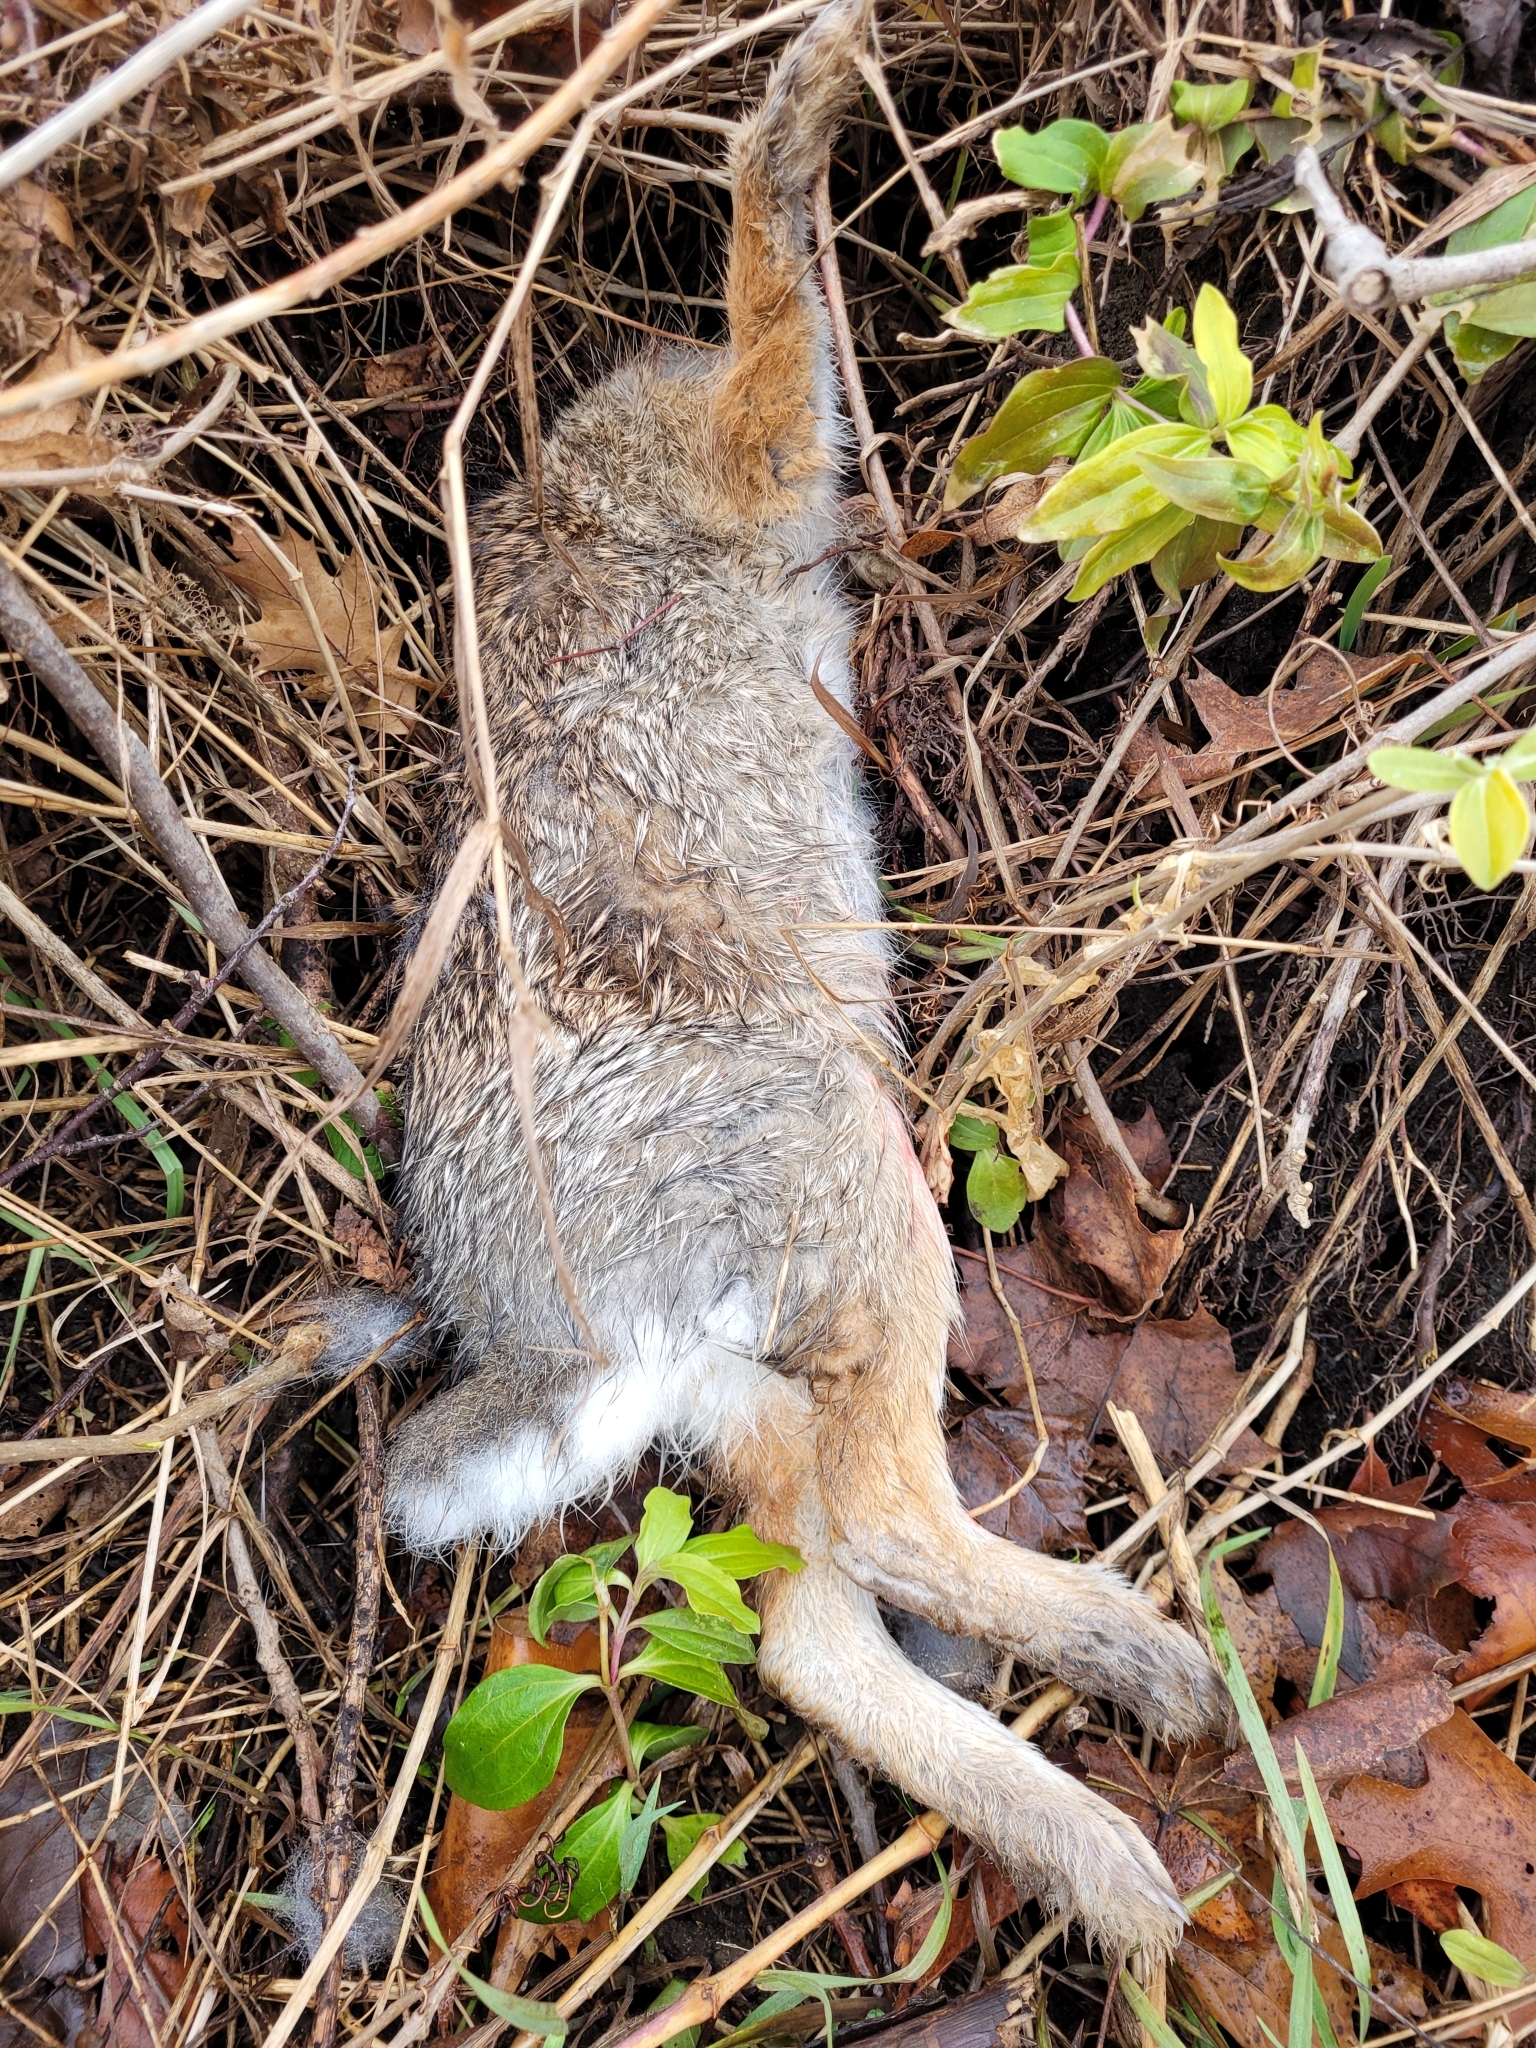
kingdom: Animalia
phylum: Chordata
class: Mammalia
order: Lagomorpha
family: Leporidae
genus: Sylvilagus
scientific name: Sylvilagus floridanus
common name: Eastern cottontail
